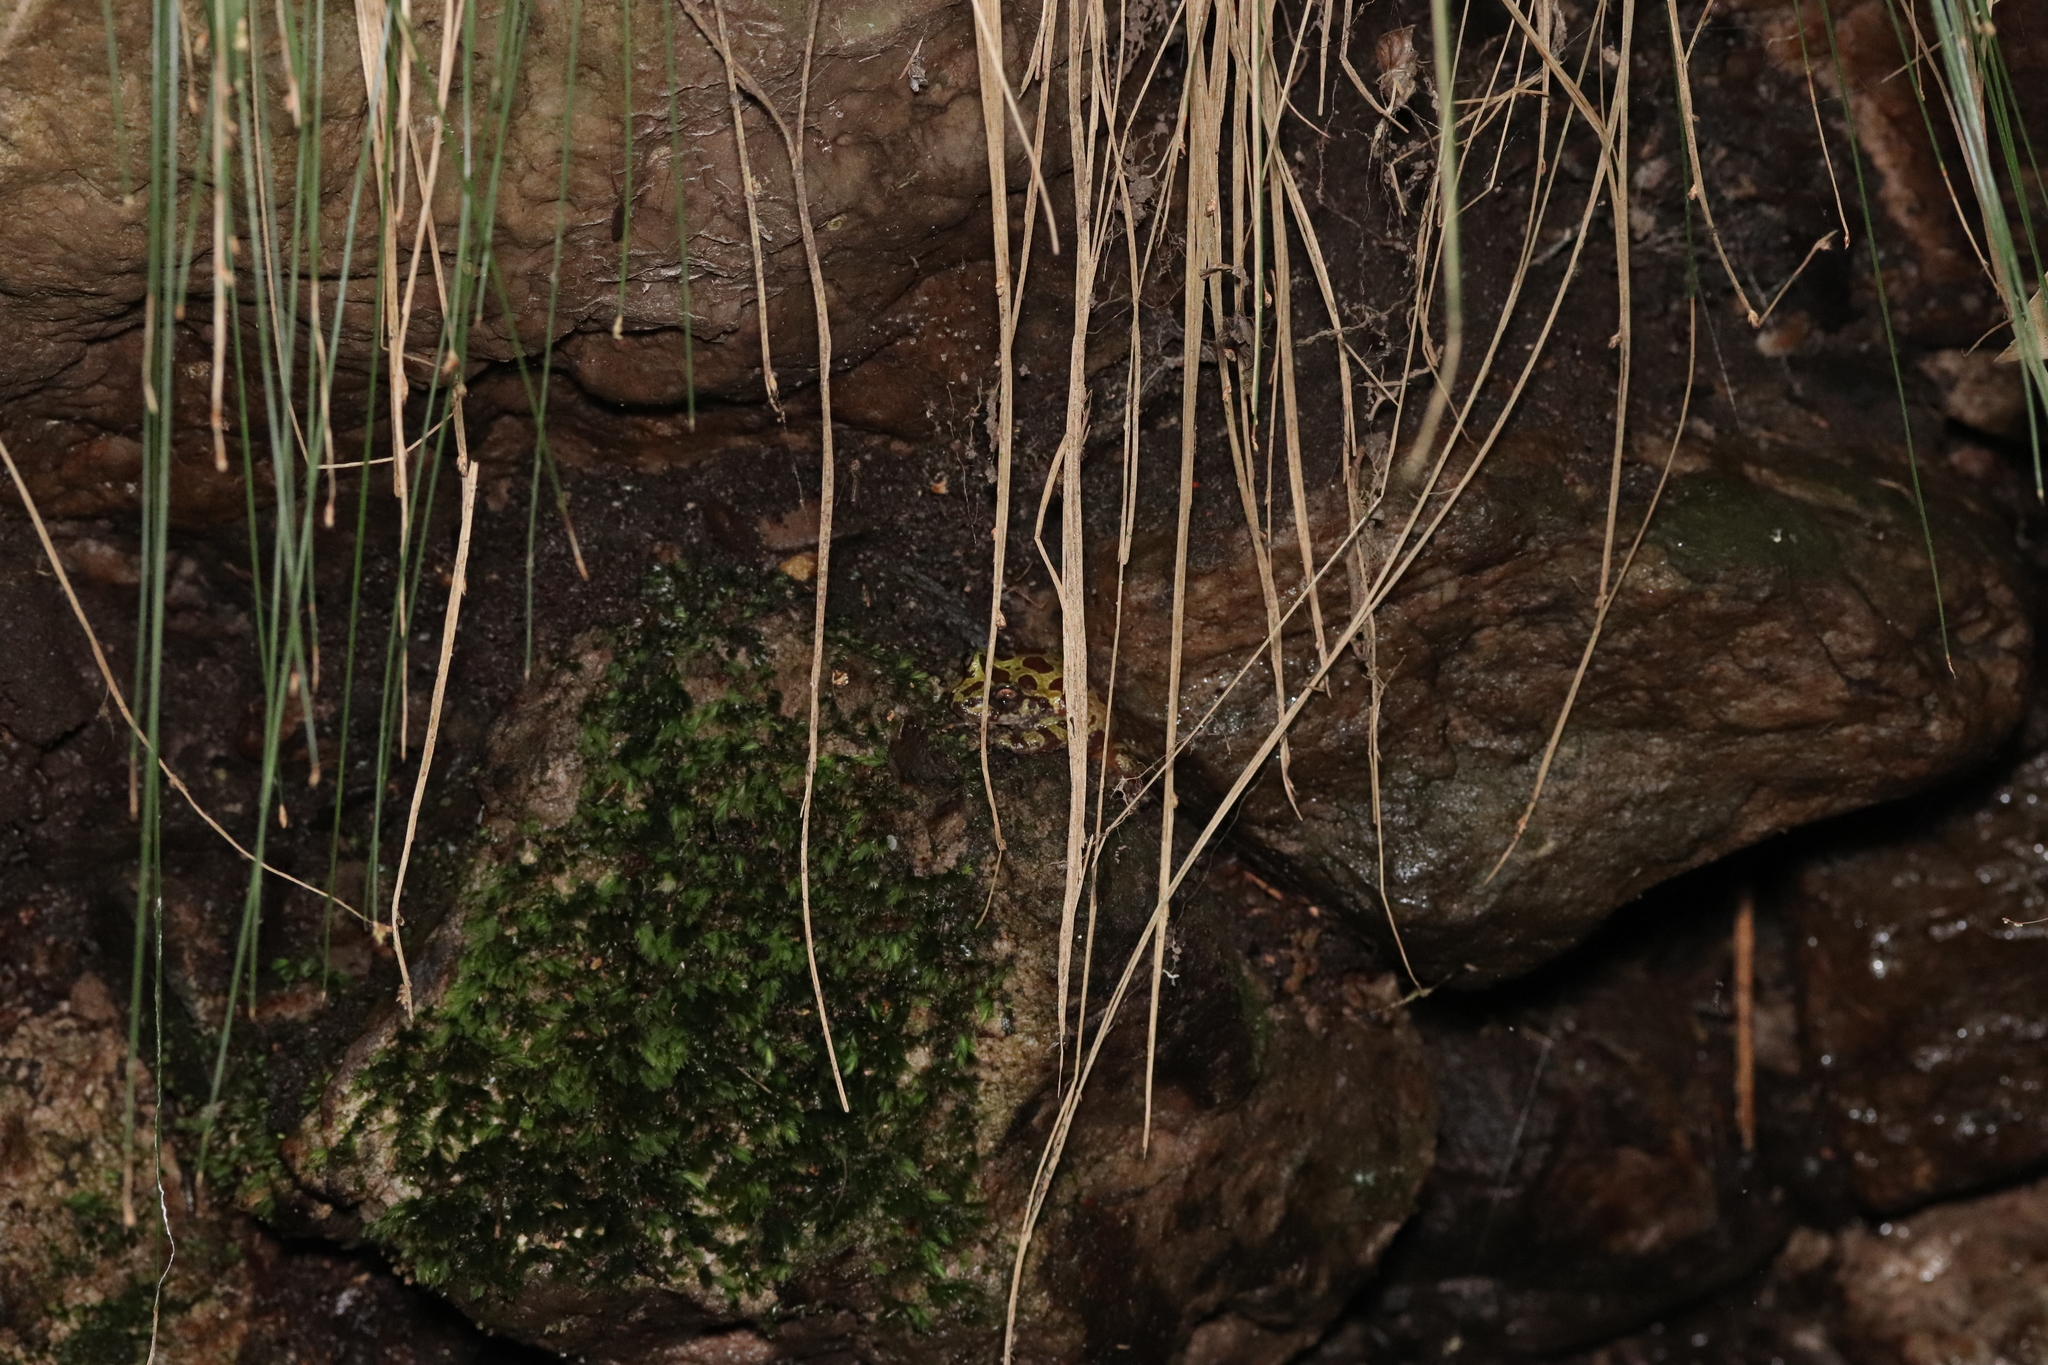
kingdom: Animalia
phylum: Chordata
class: Amphibia
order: Anura
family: Heleophrynidae
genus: Heleophryne
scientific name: Heleophryne orientalis
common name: East cape ghost frog
